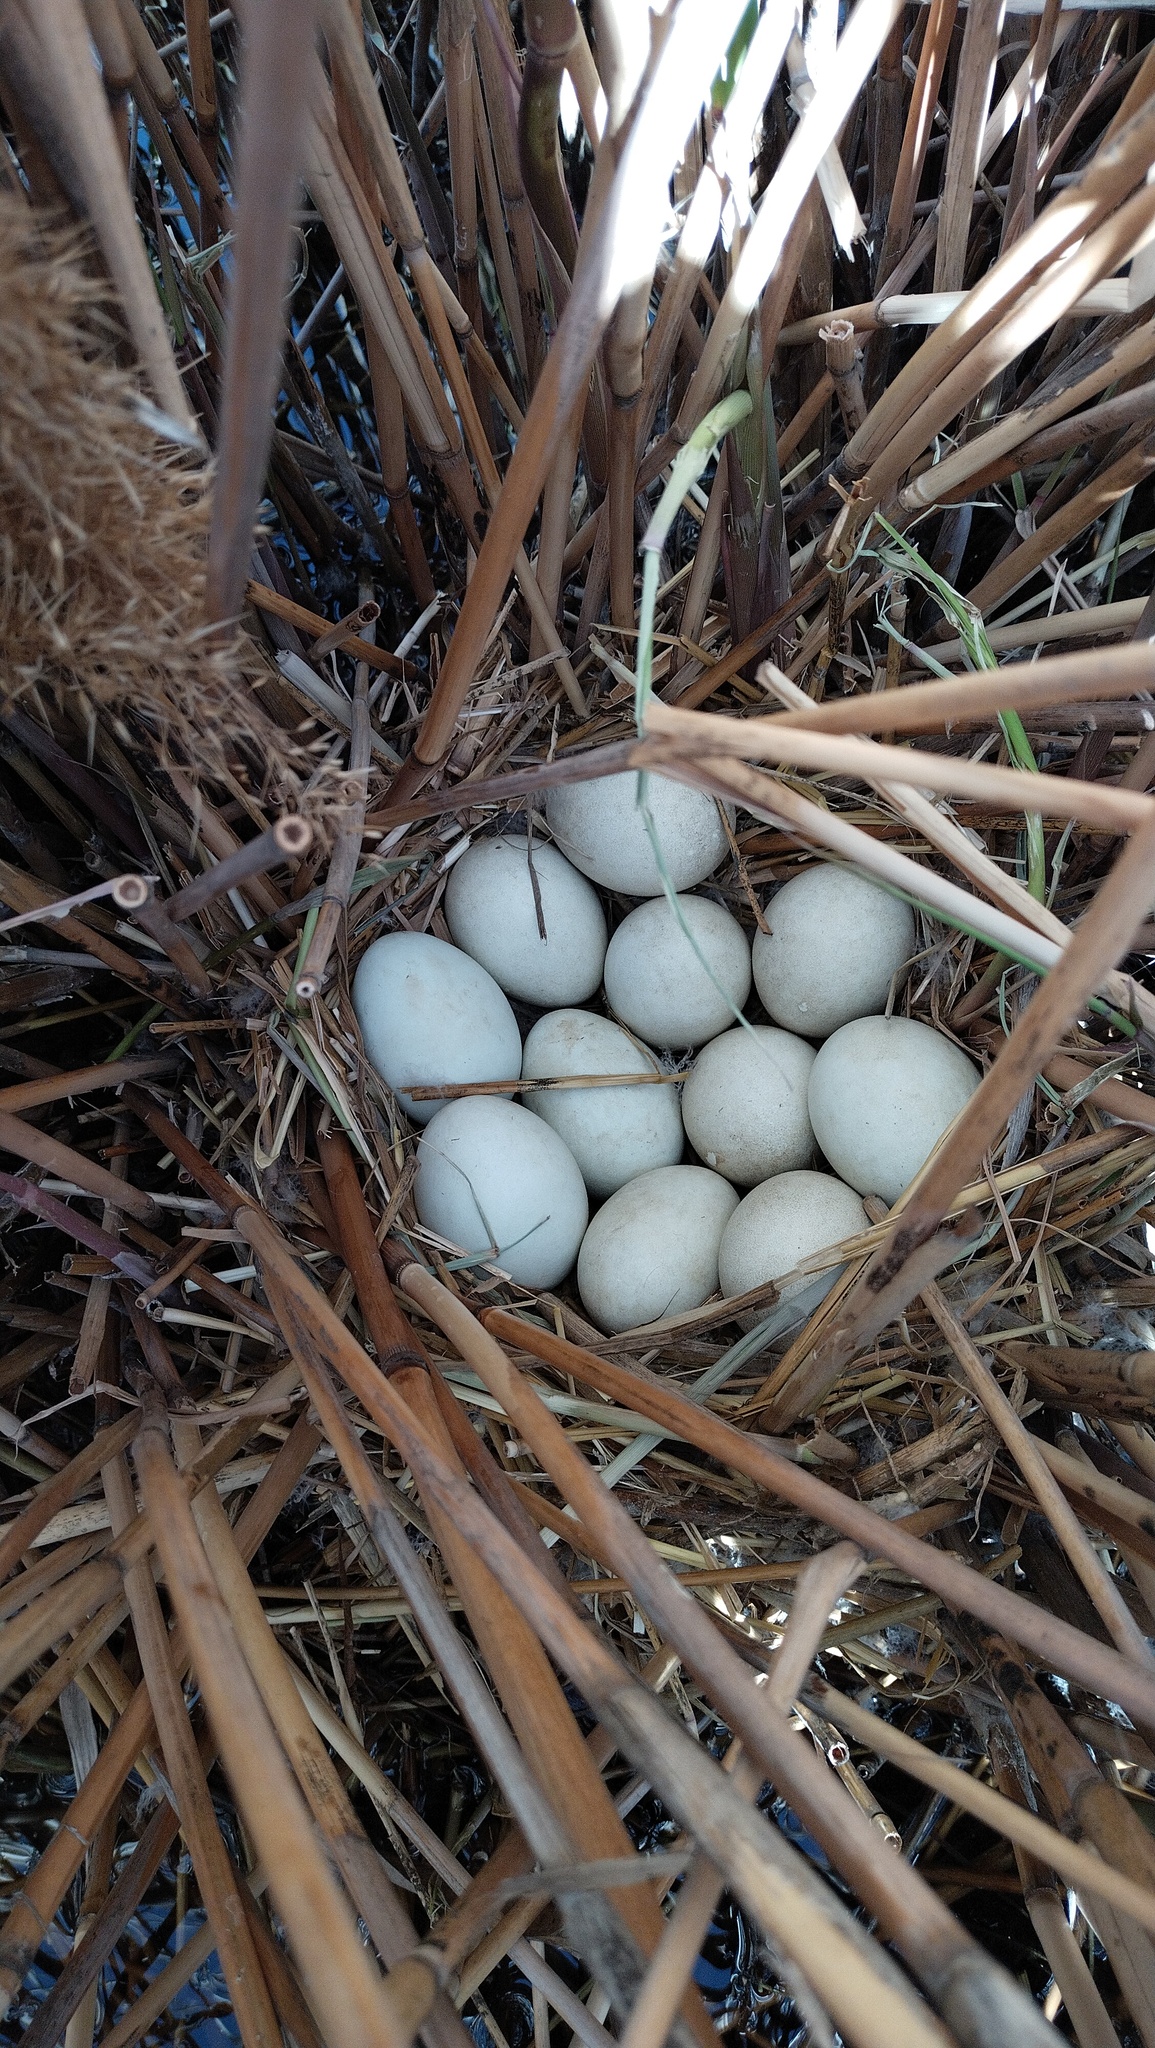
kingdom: Animalia
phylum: Chordata
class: Aves
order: Anseriformes
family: Anatidae
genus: Oxyura
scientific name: Oxyura leucocephala
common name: White-headed duck
